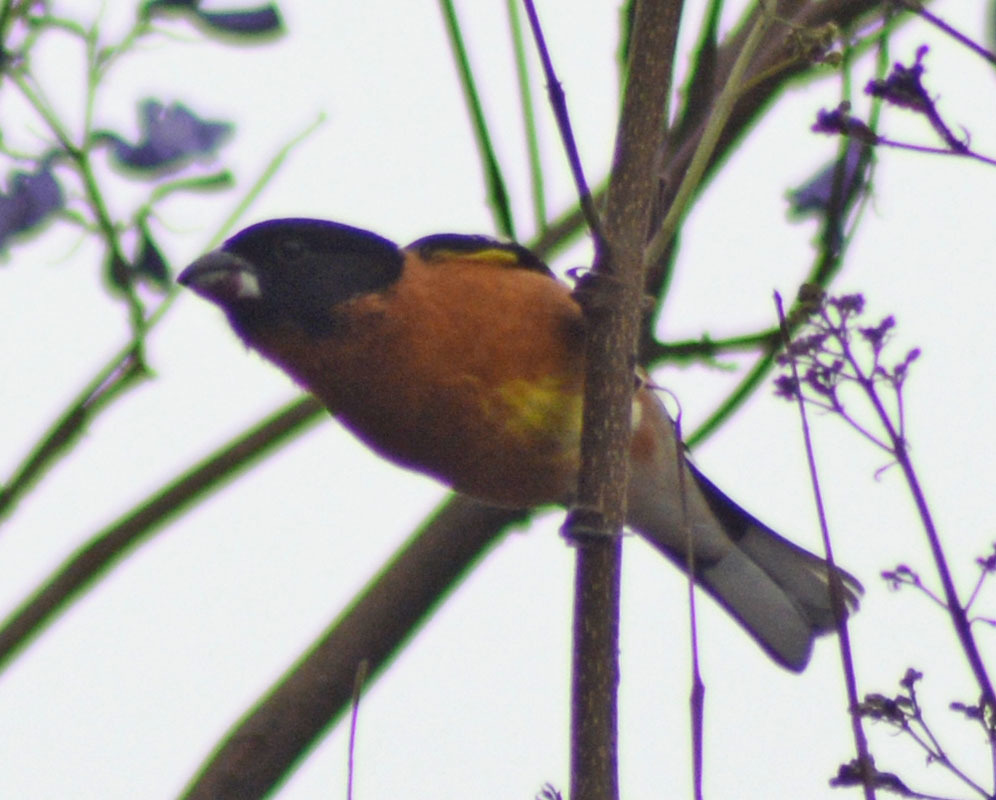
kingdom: Animalia
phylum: Chordata
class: Aves
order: Passeriformes
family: Cardinalidae
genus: Pheucticus
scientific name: Pheucticus melanocephalus
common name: Black-headed grosbeak
